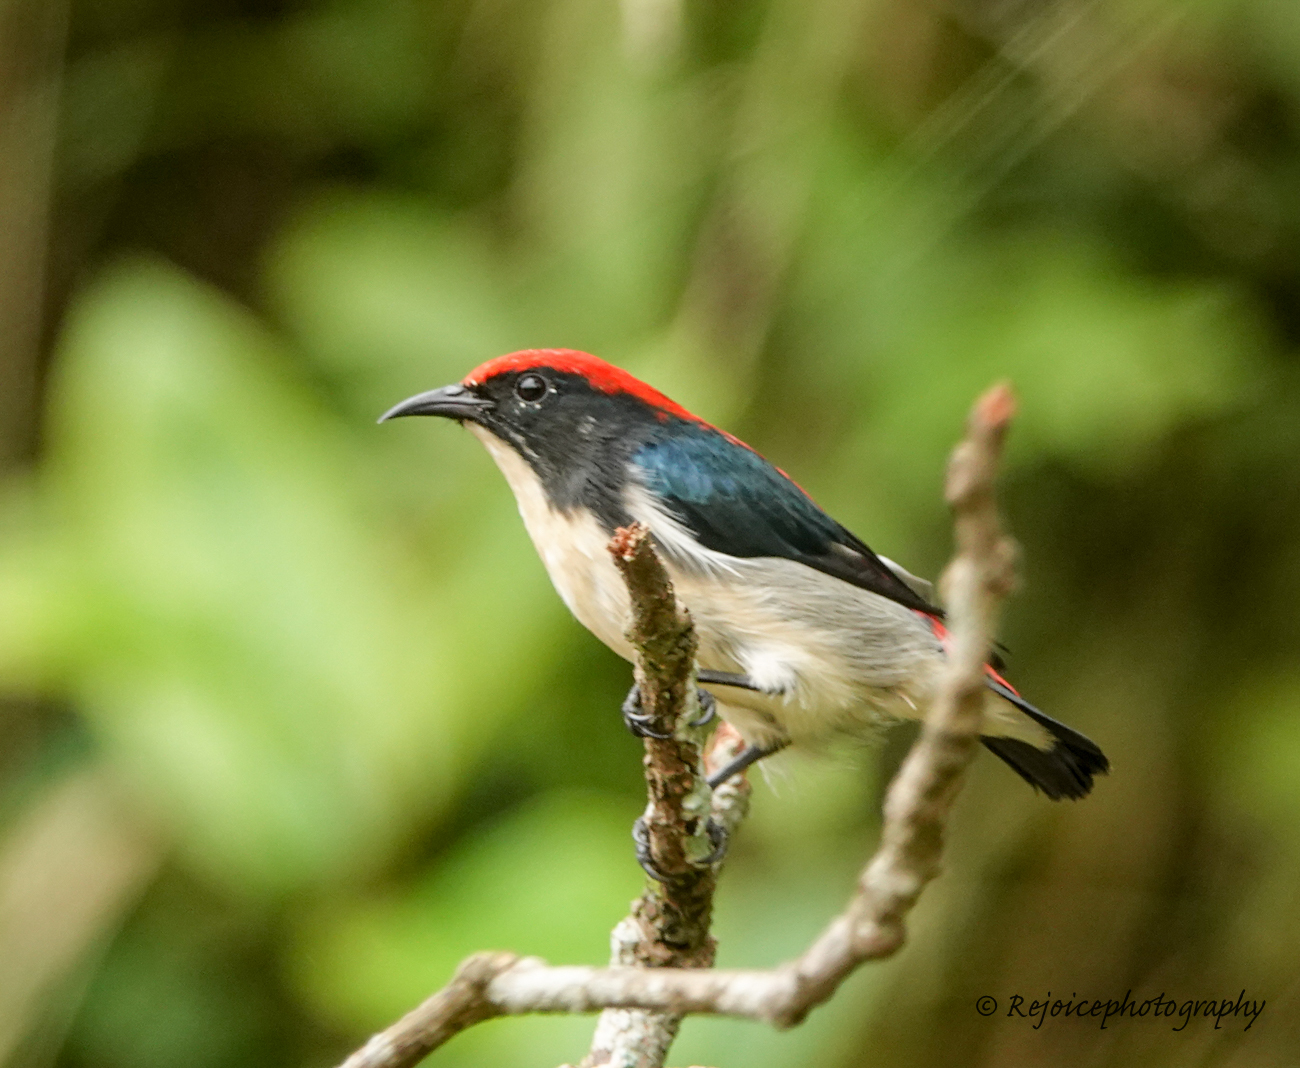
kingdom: Animalia
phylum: Chordata
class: Aves
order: Passeriformes
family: Dicaeidae
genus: Dicaeum
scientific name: Dicaeum cruentatum
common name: Scarlet-backed flowerpecker
